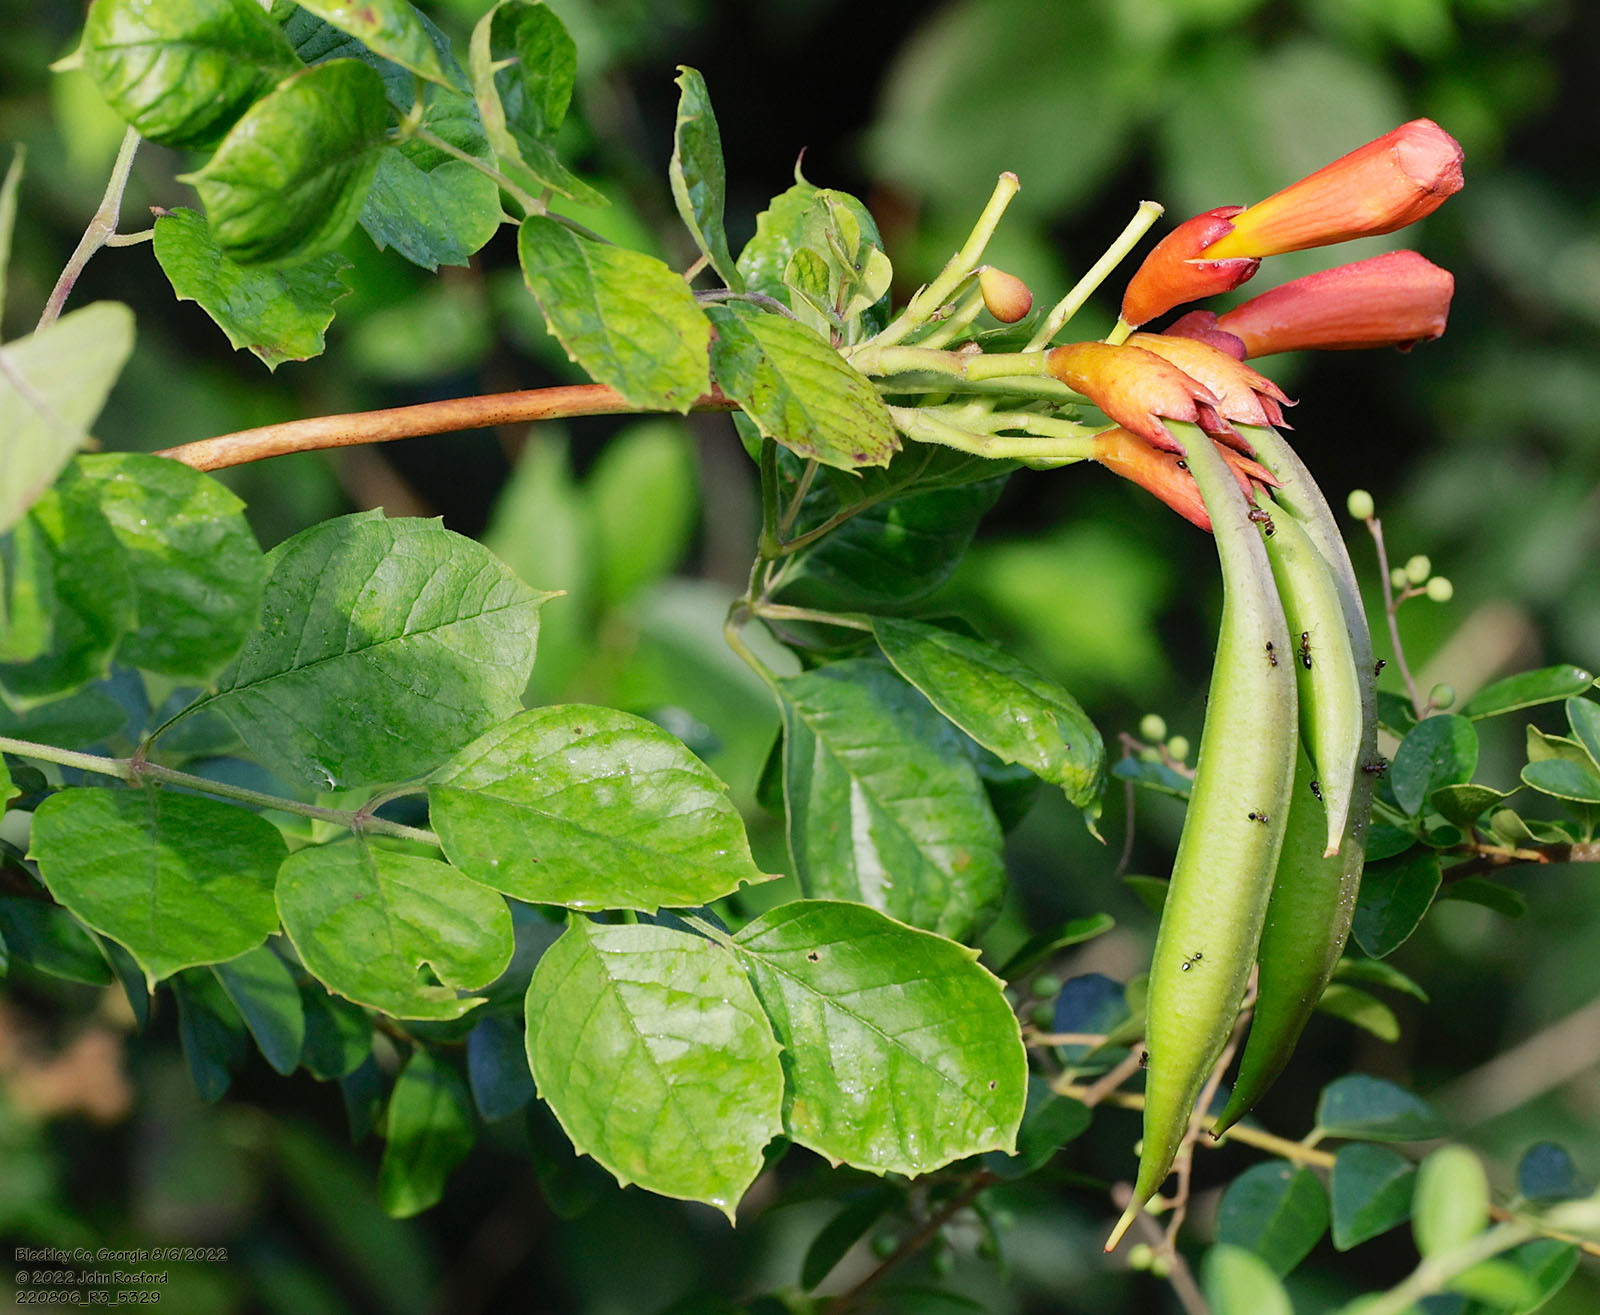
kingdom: Plantae
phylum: Tracheophyta
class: Magnoliopsida
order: Lamiales
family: Bignoniaceae
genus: Campsis
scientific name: Campsis radicans
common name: Trumpet-creeper
